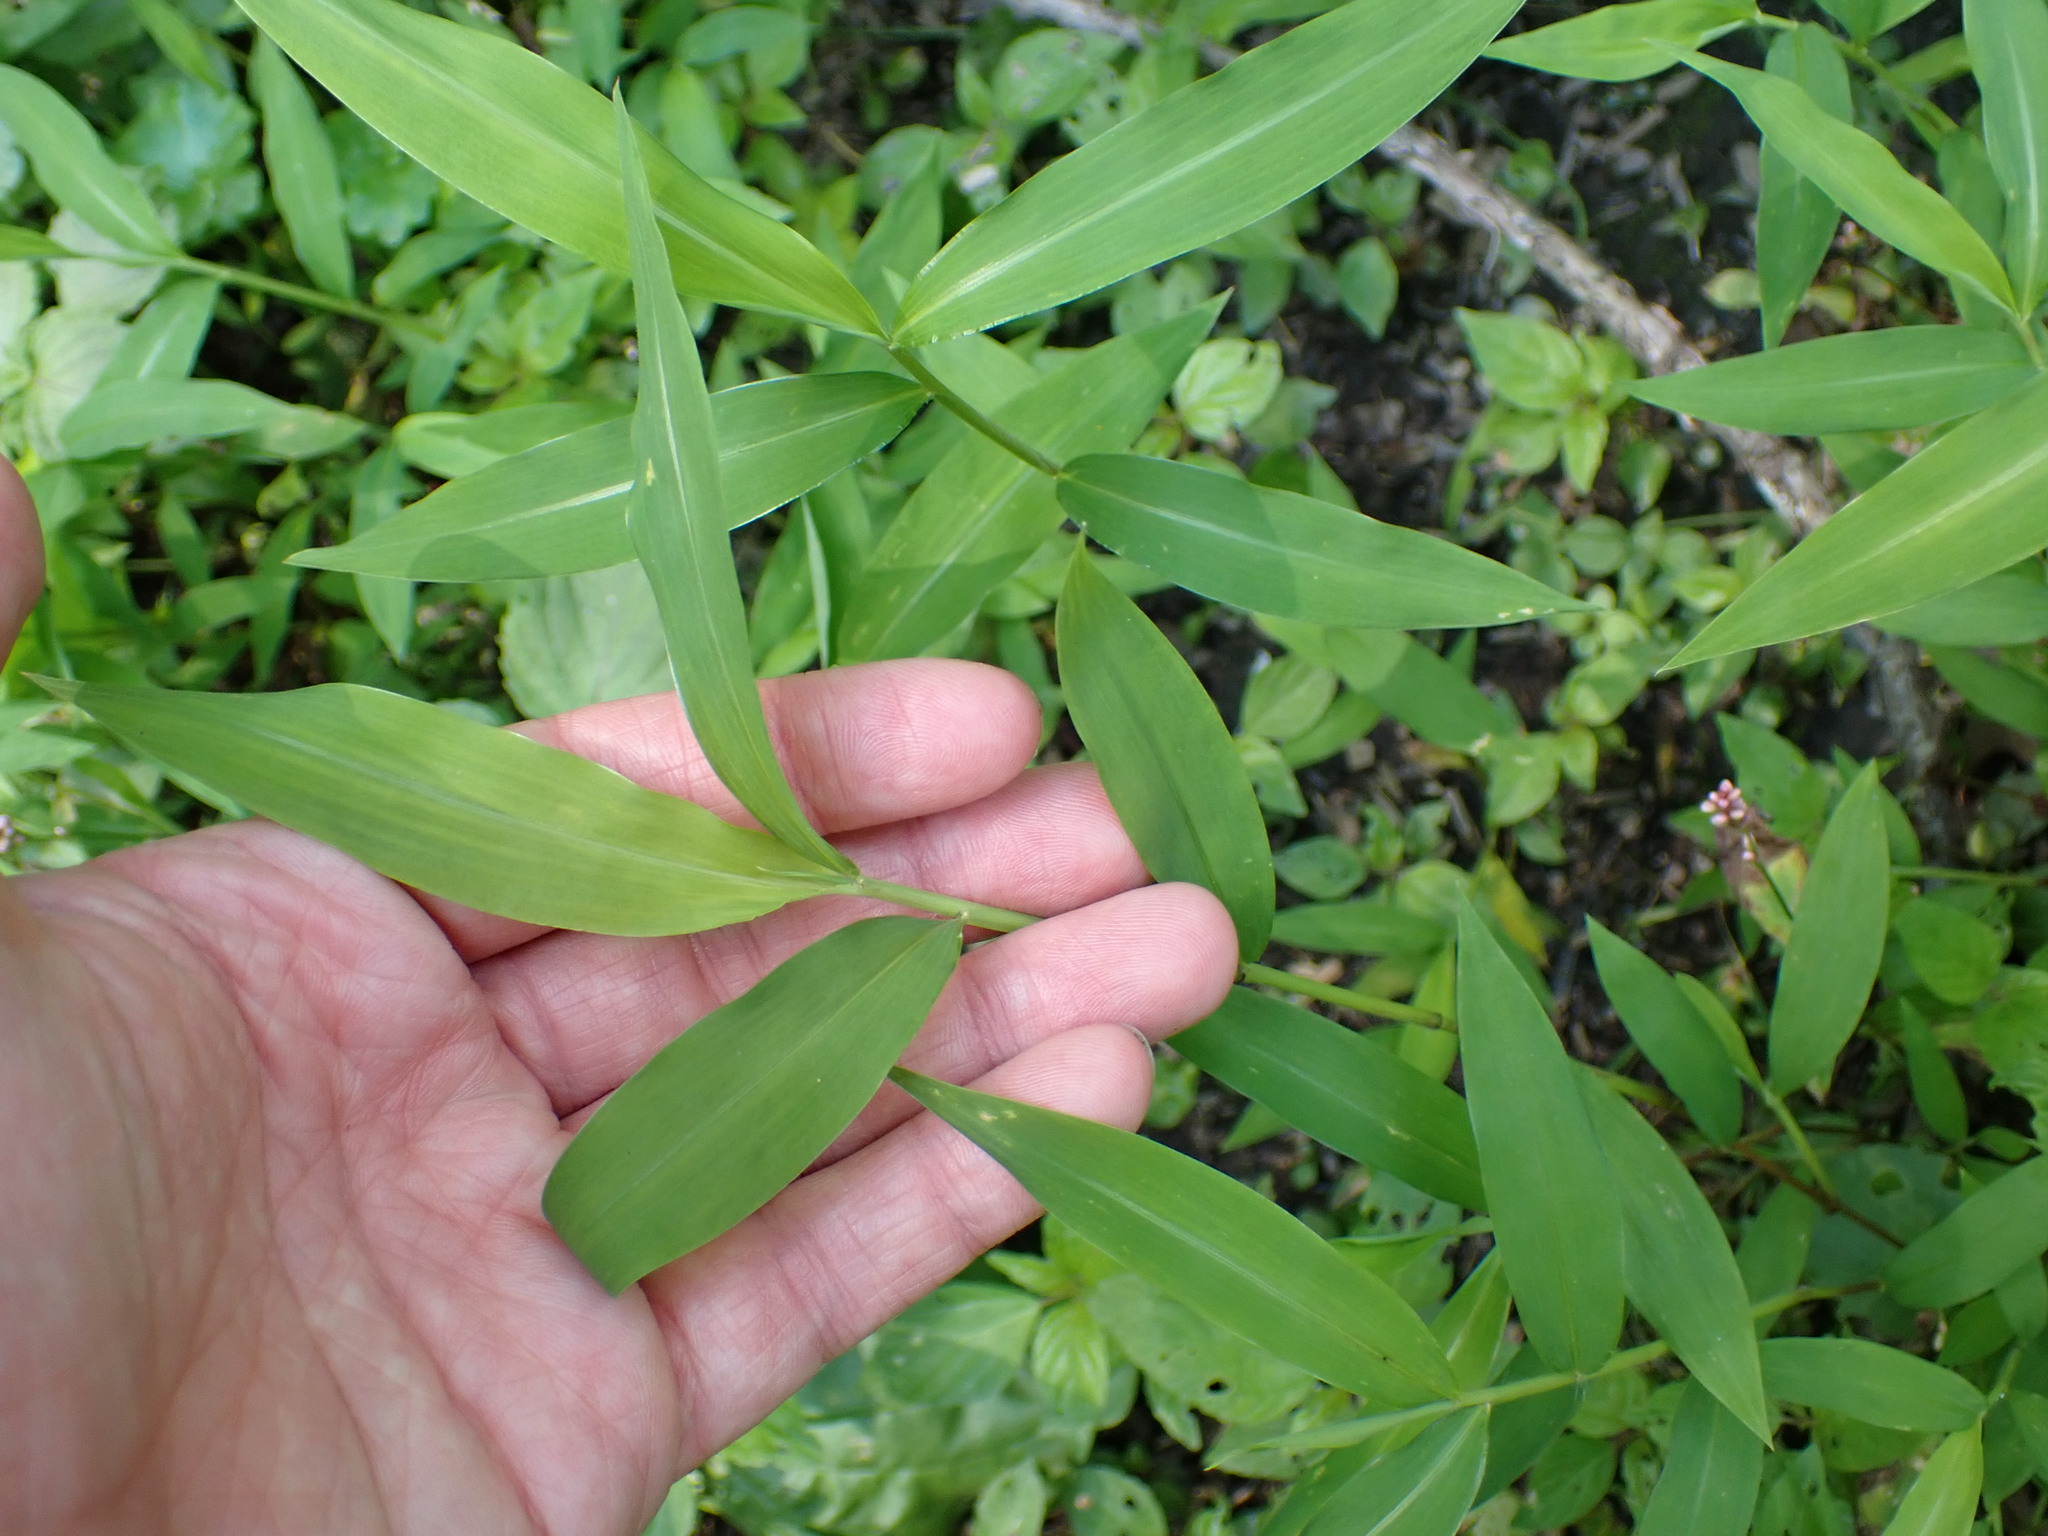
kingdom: Plantae
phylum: Tracheophyta
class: Liliopsida
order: Poales
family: Poaceae
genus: Microstegium
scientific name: Microstegium vimineum
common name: Japanese stiltgrass
